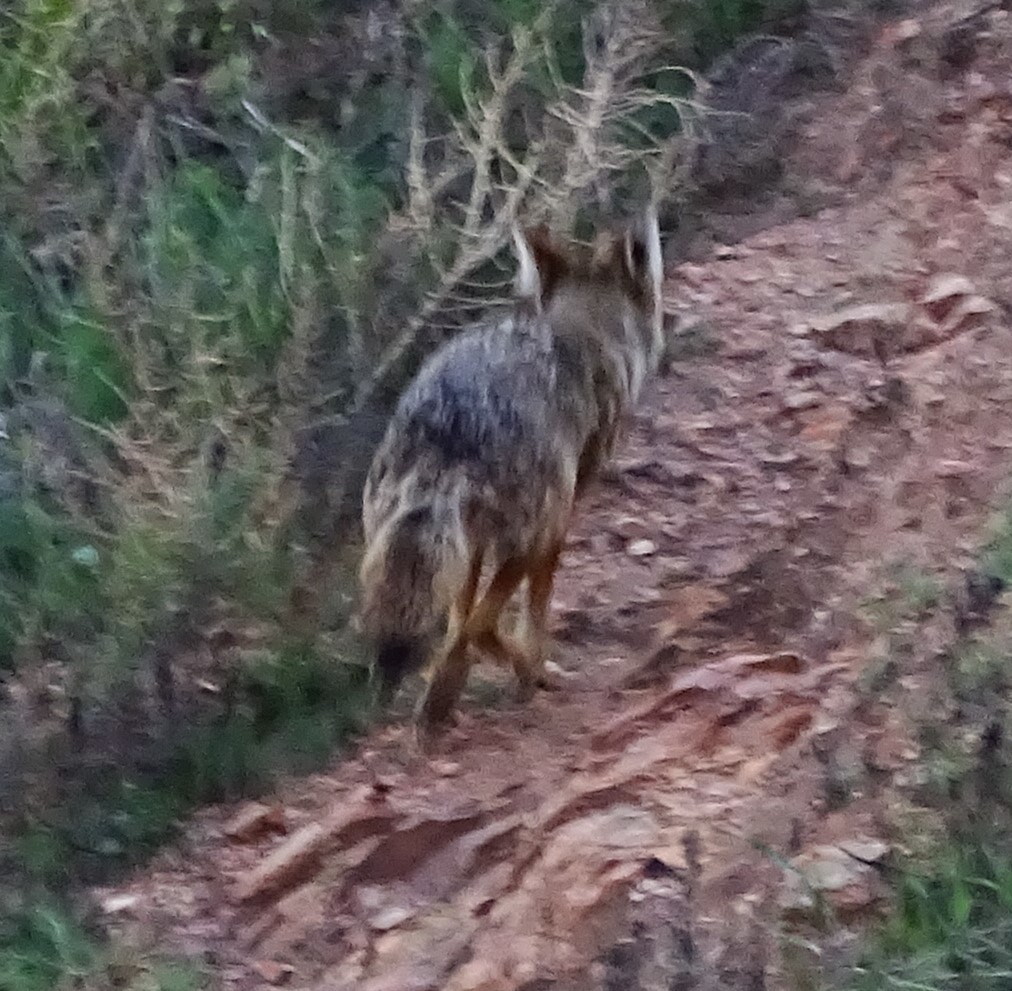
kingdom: Animalia
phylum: Chordata
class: Mammalia
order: Carnivora
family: Canidae
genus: Canis
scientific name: Canis latrans
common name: Coyote
